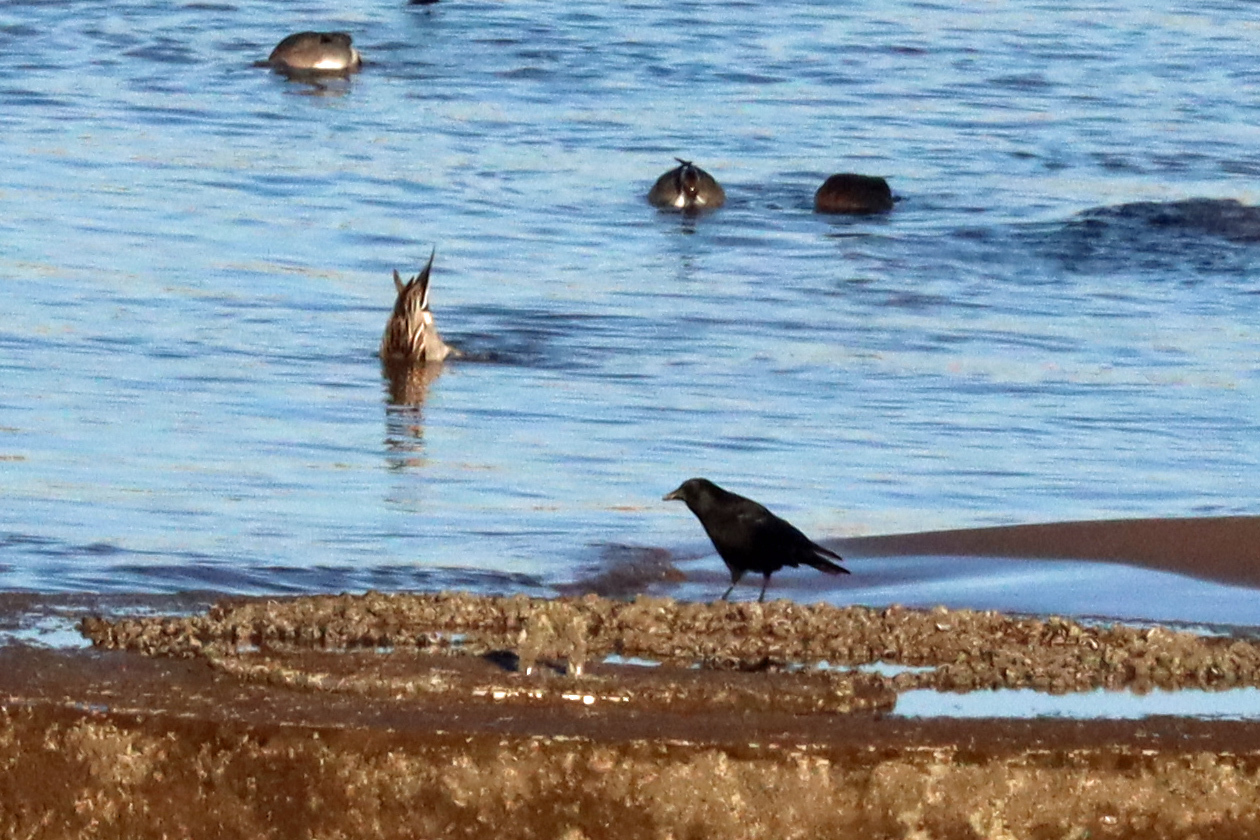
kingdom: Animalia
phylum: Chordata
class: Aves
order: Passeriformes
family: Corvidae
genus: Corvus
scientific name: Corvus corone
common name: Carrion crow
